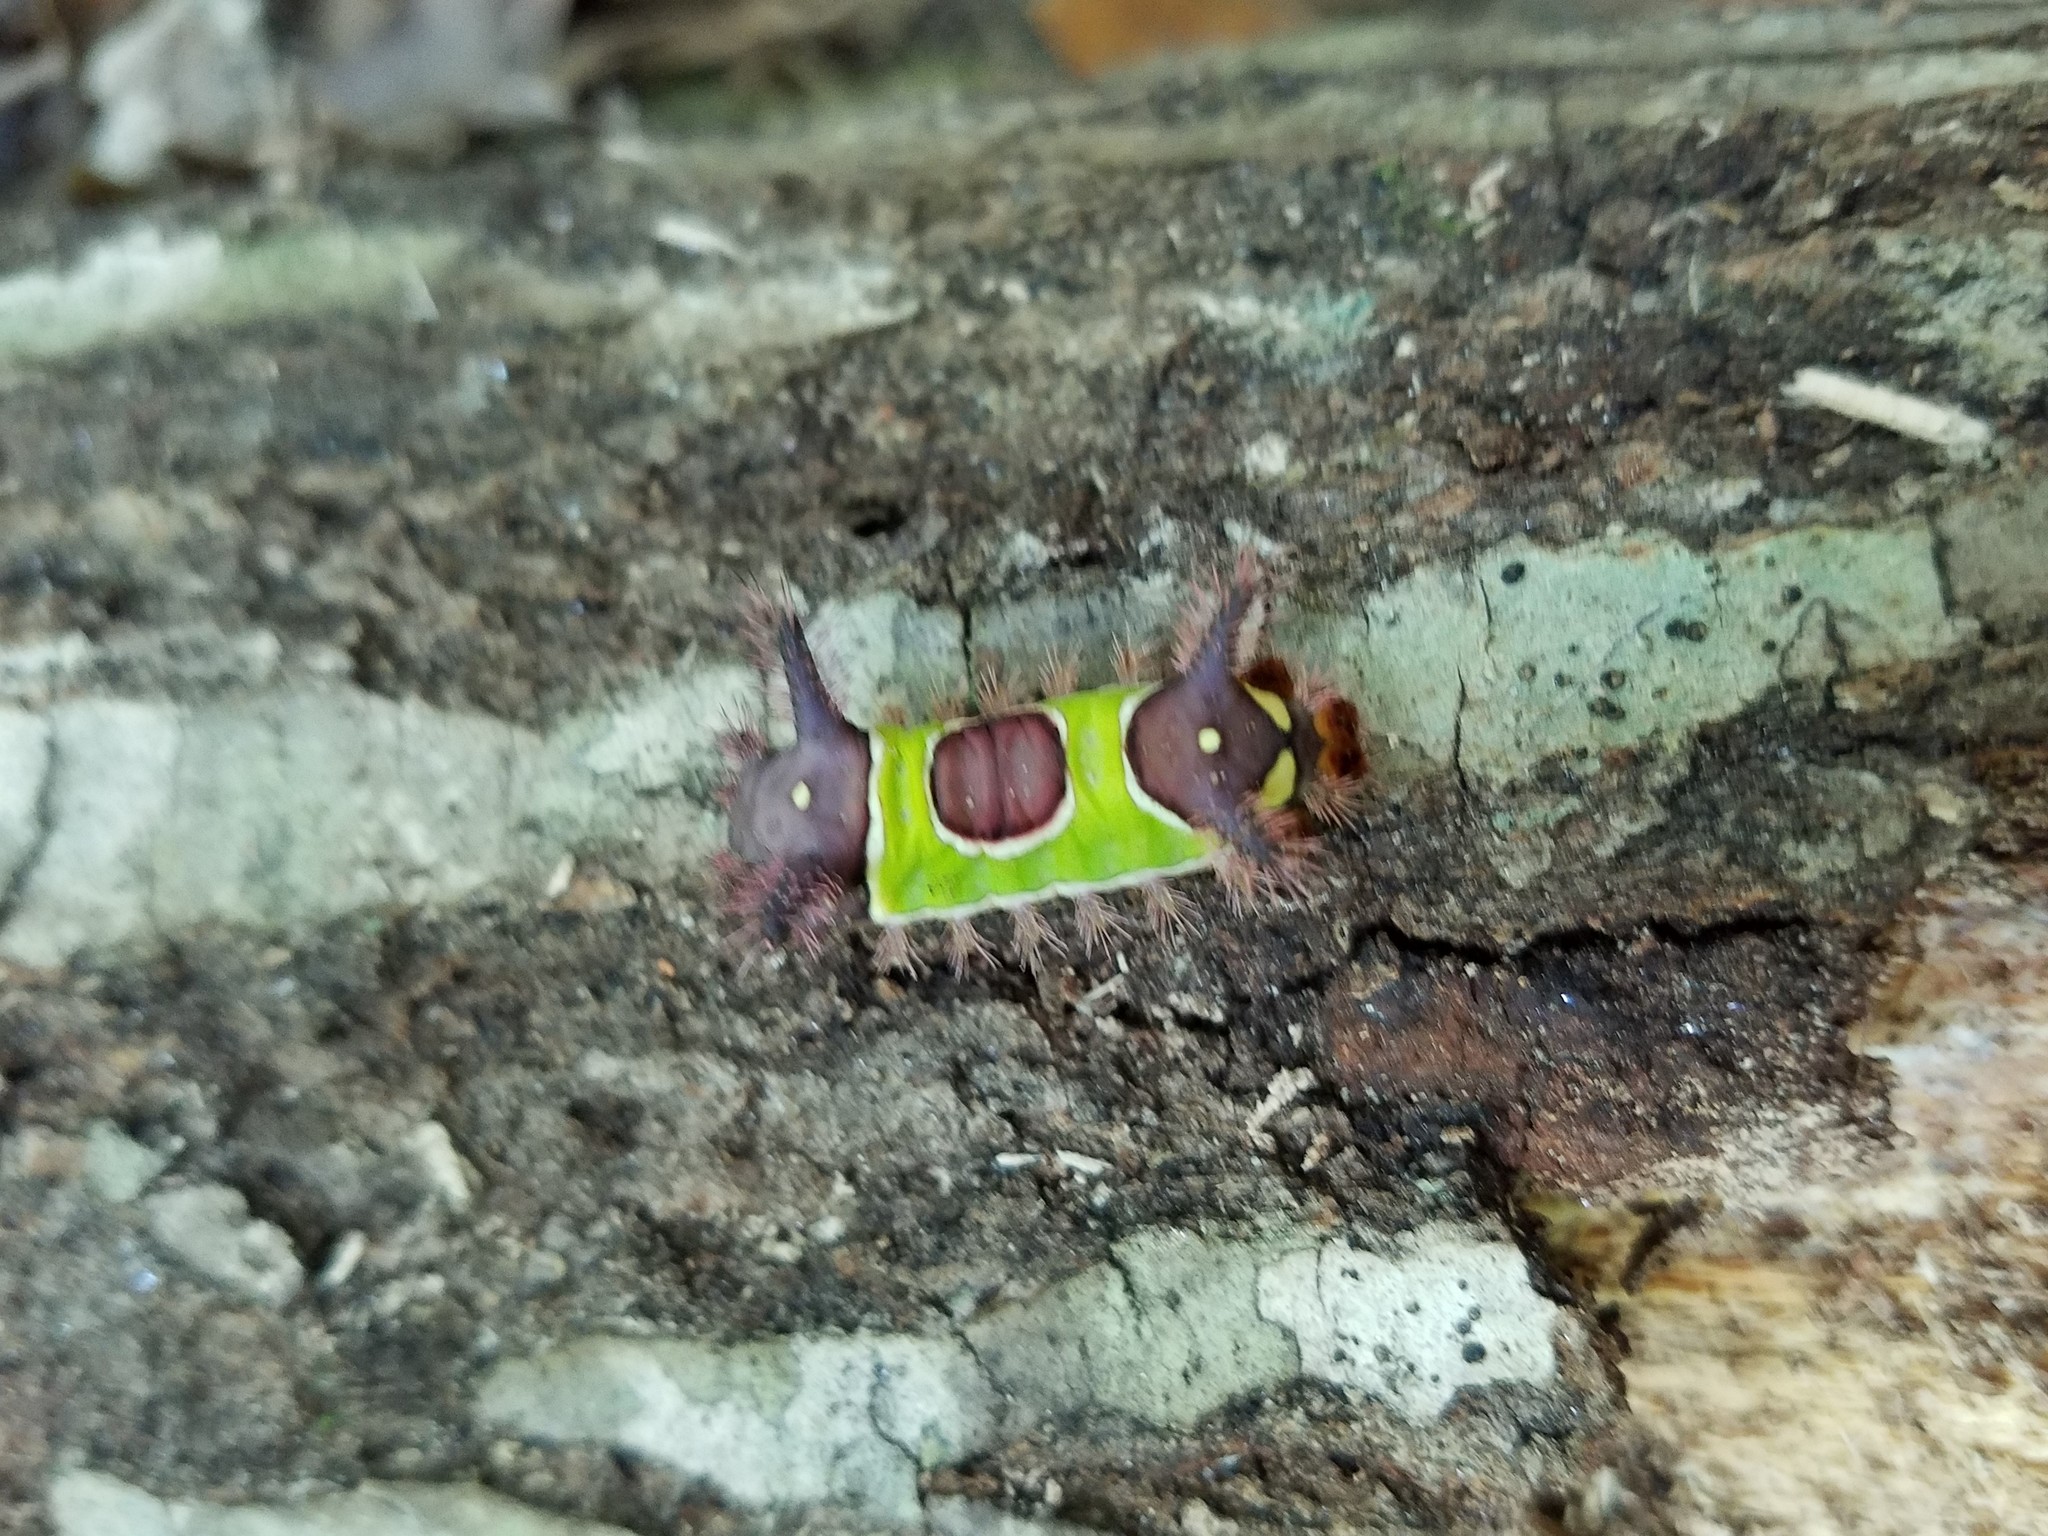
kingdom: Animalia
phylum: Arthropoda
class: Insecta
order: Lepidoptera
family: Limacodidae
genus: Acharia
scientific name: Acharia stimulea
